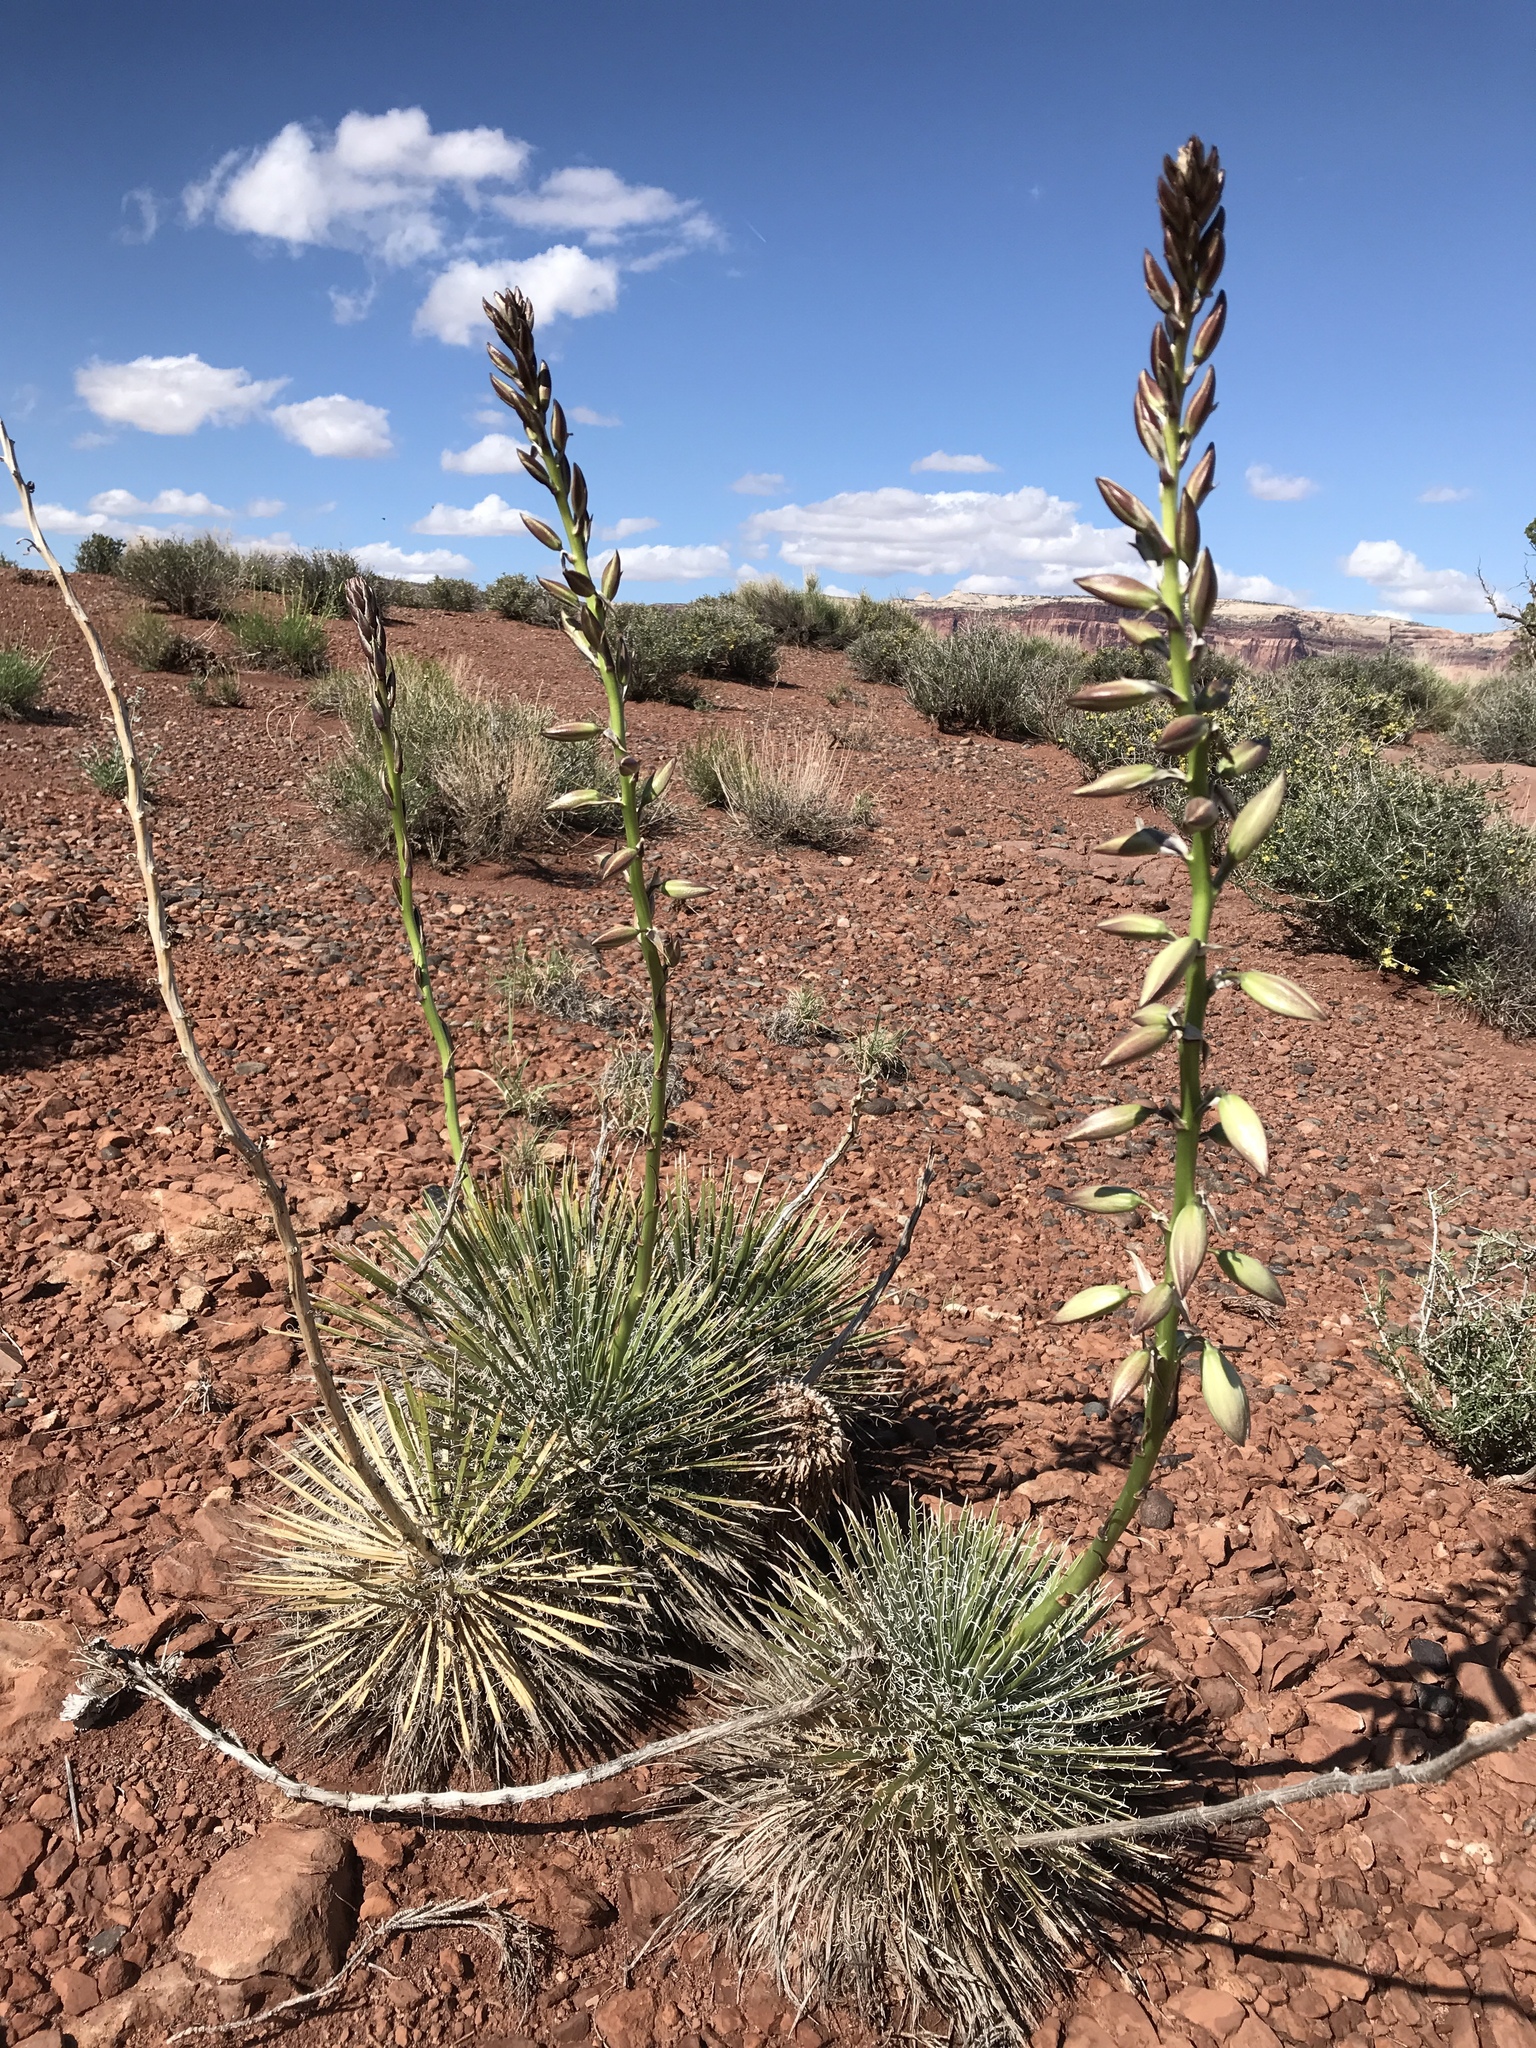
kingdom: Plantae
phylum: Tracheophyta
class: Liliopsida
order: Asparagales
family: Asparagaceae
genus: Yucca
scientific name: Yucca angustissima
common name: Narrowleaf yucca
